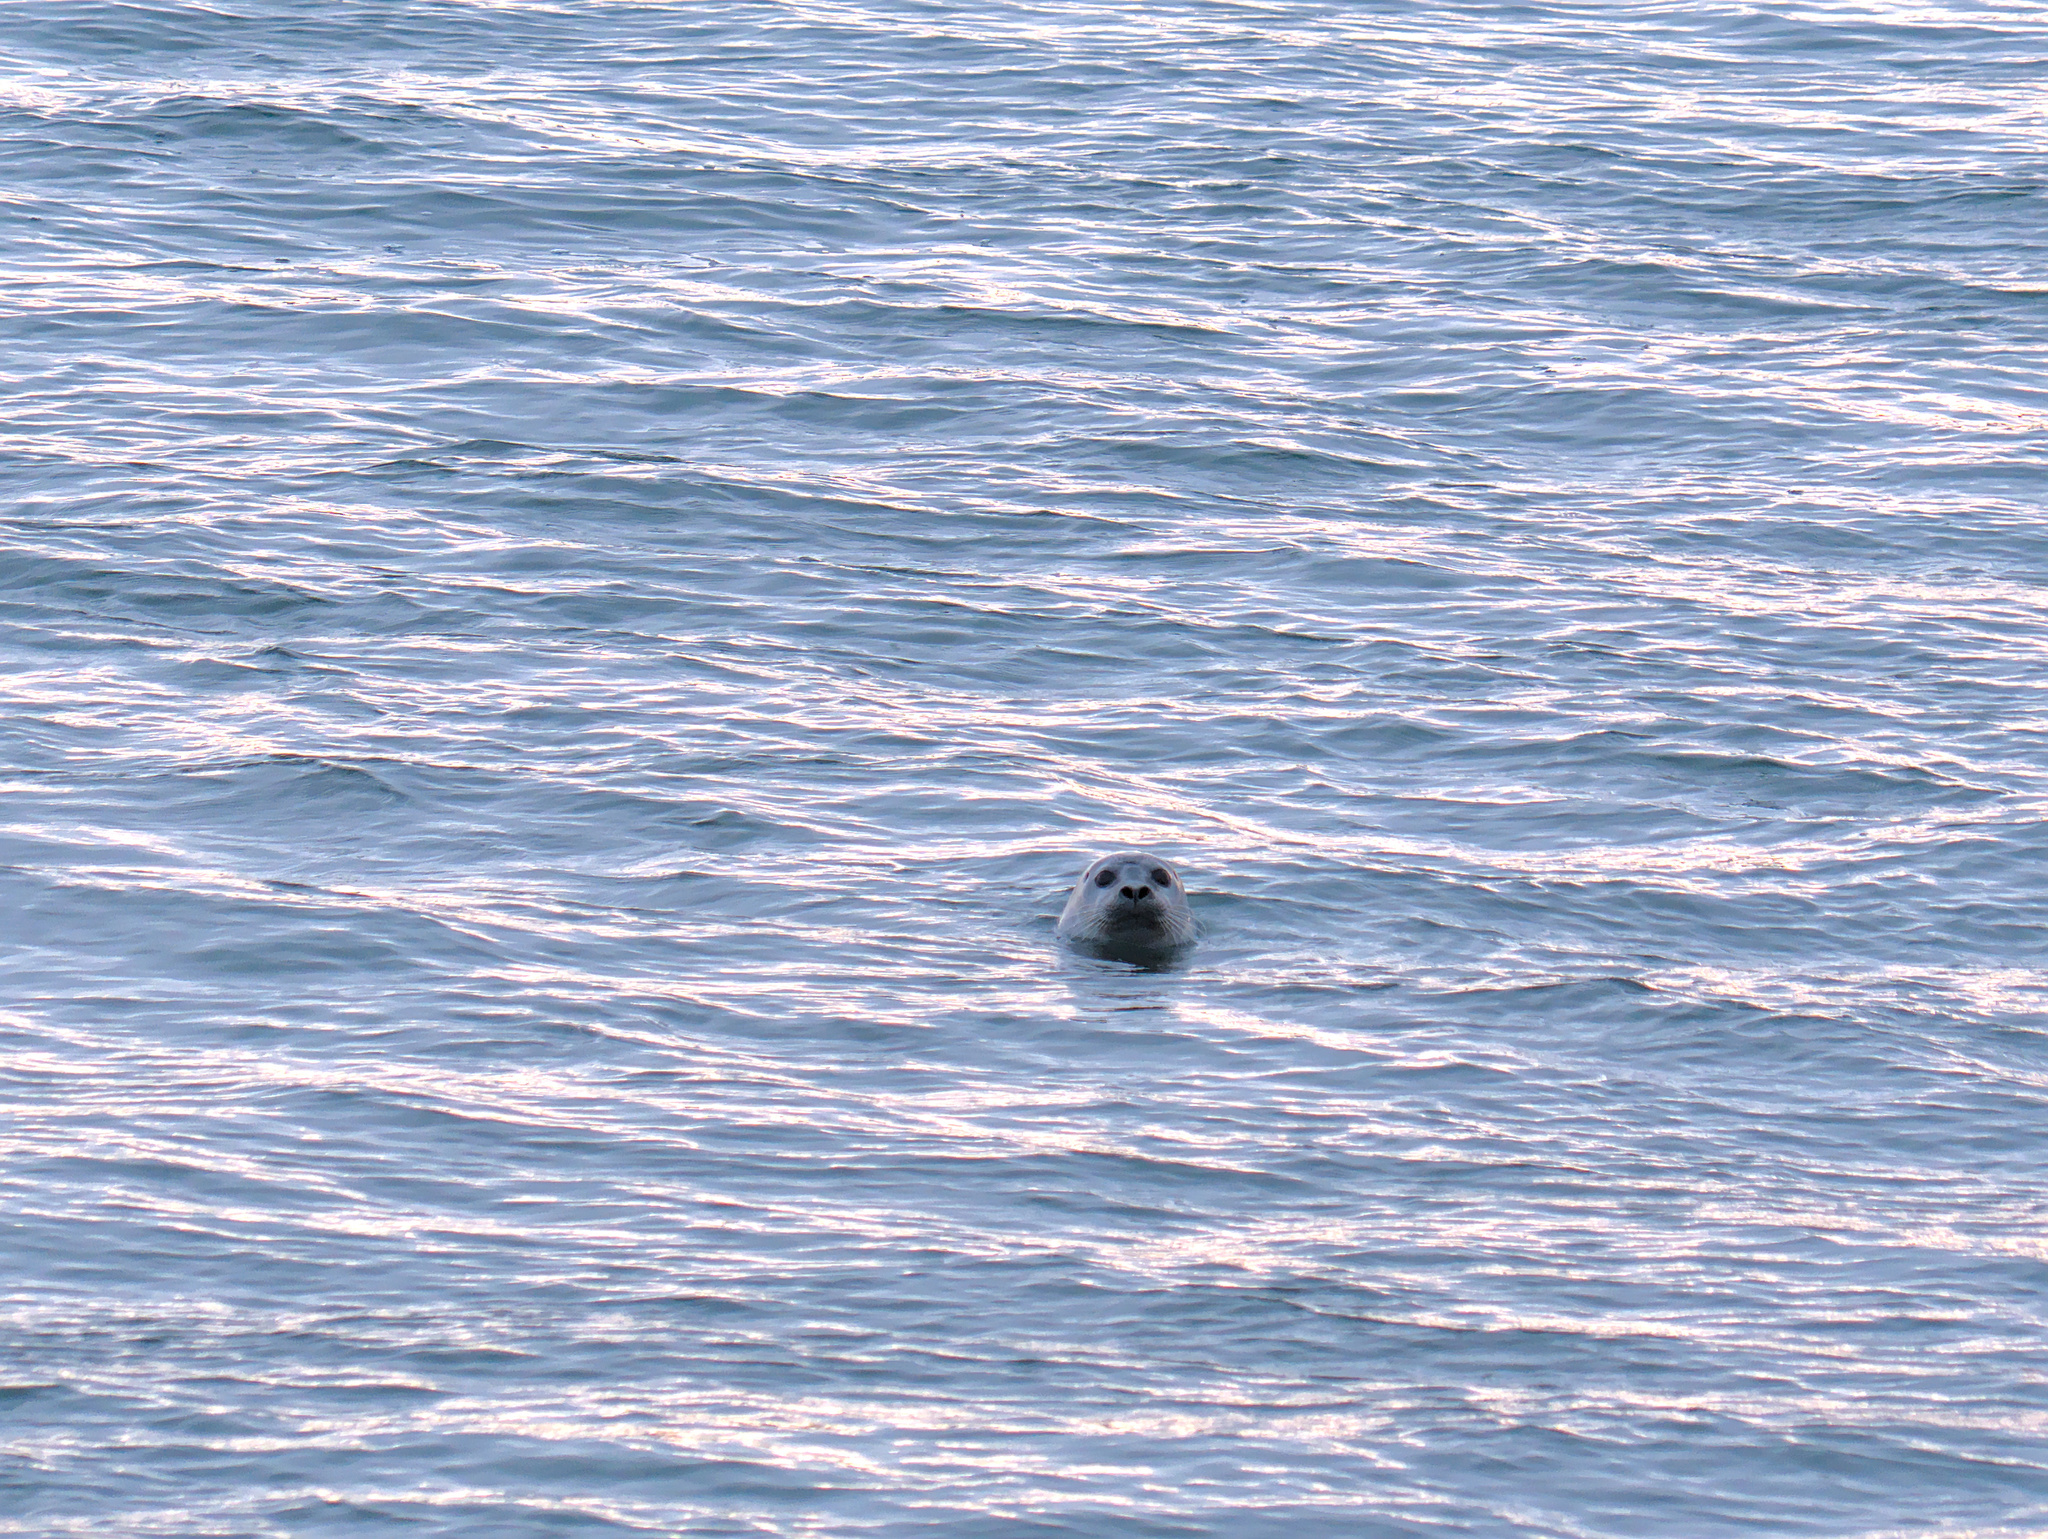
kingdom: Animalia
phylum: Chordata
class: Mammalia
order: Carnivora
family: Phocidae
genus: Phoca
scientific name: Phoca vitulina
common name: Harbor seal
